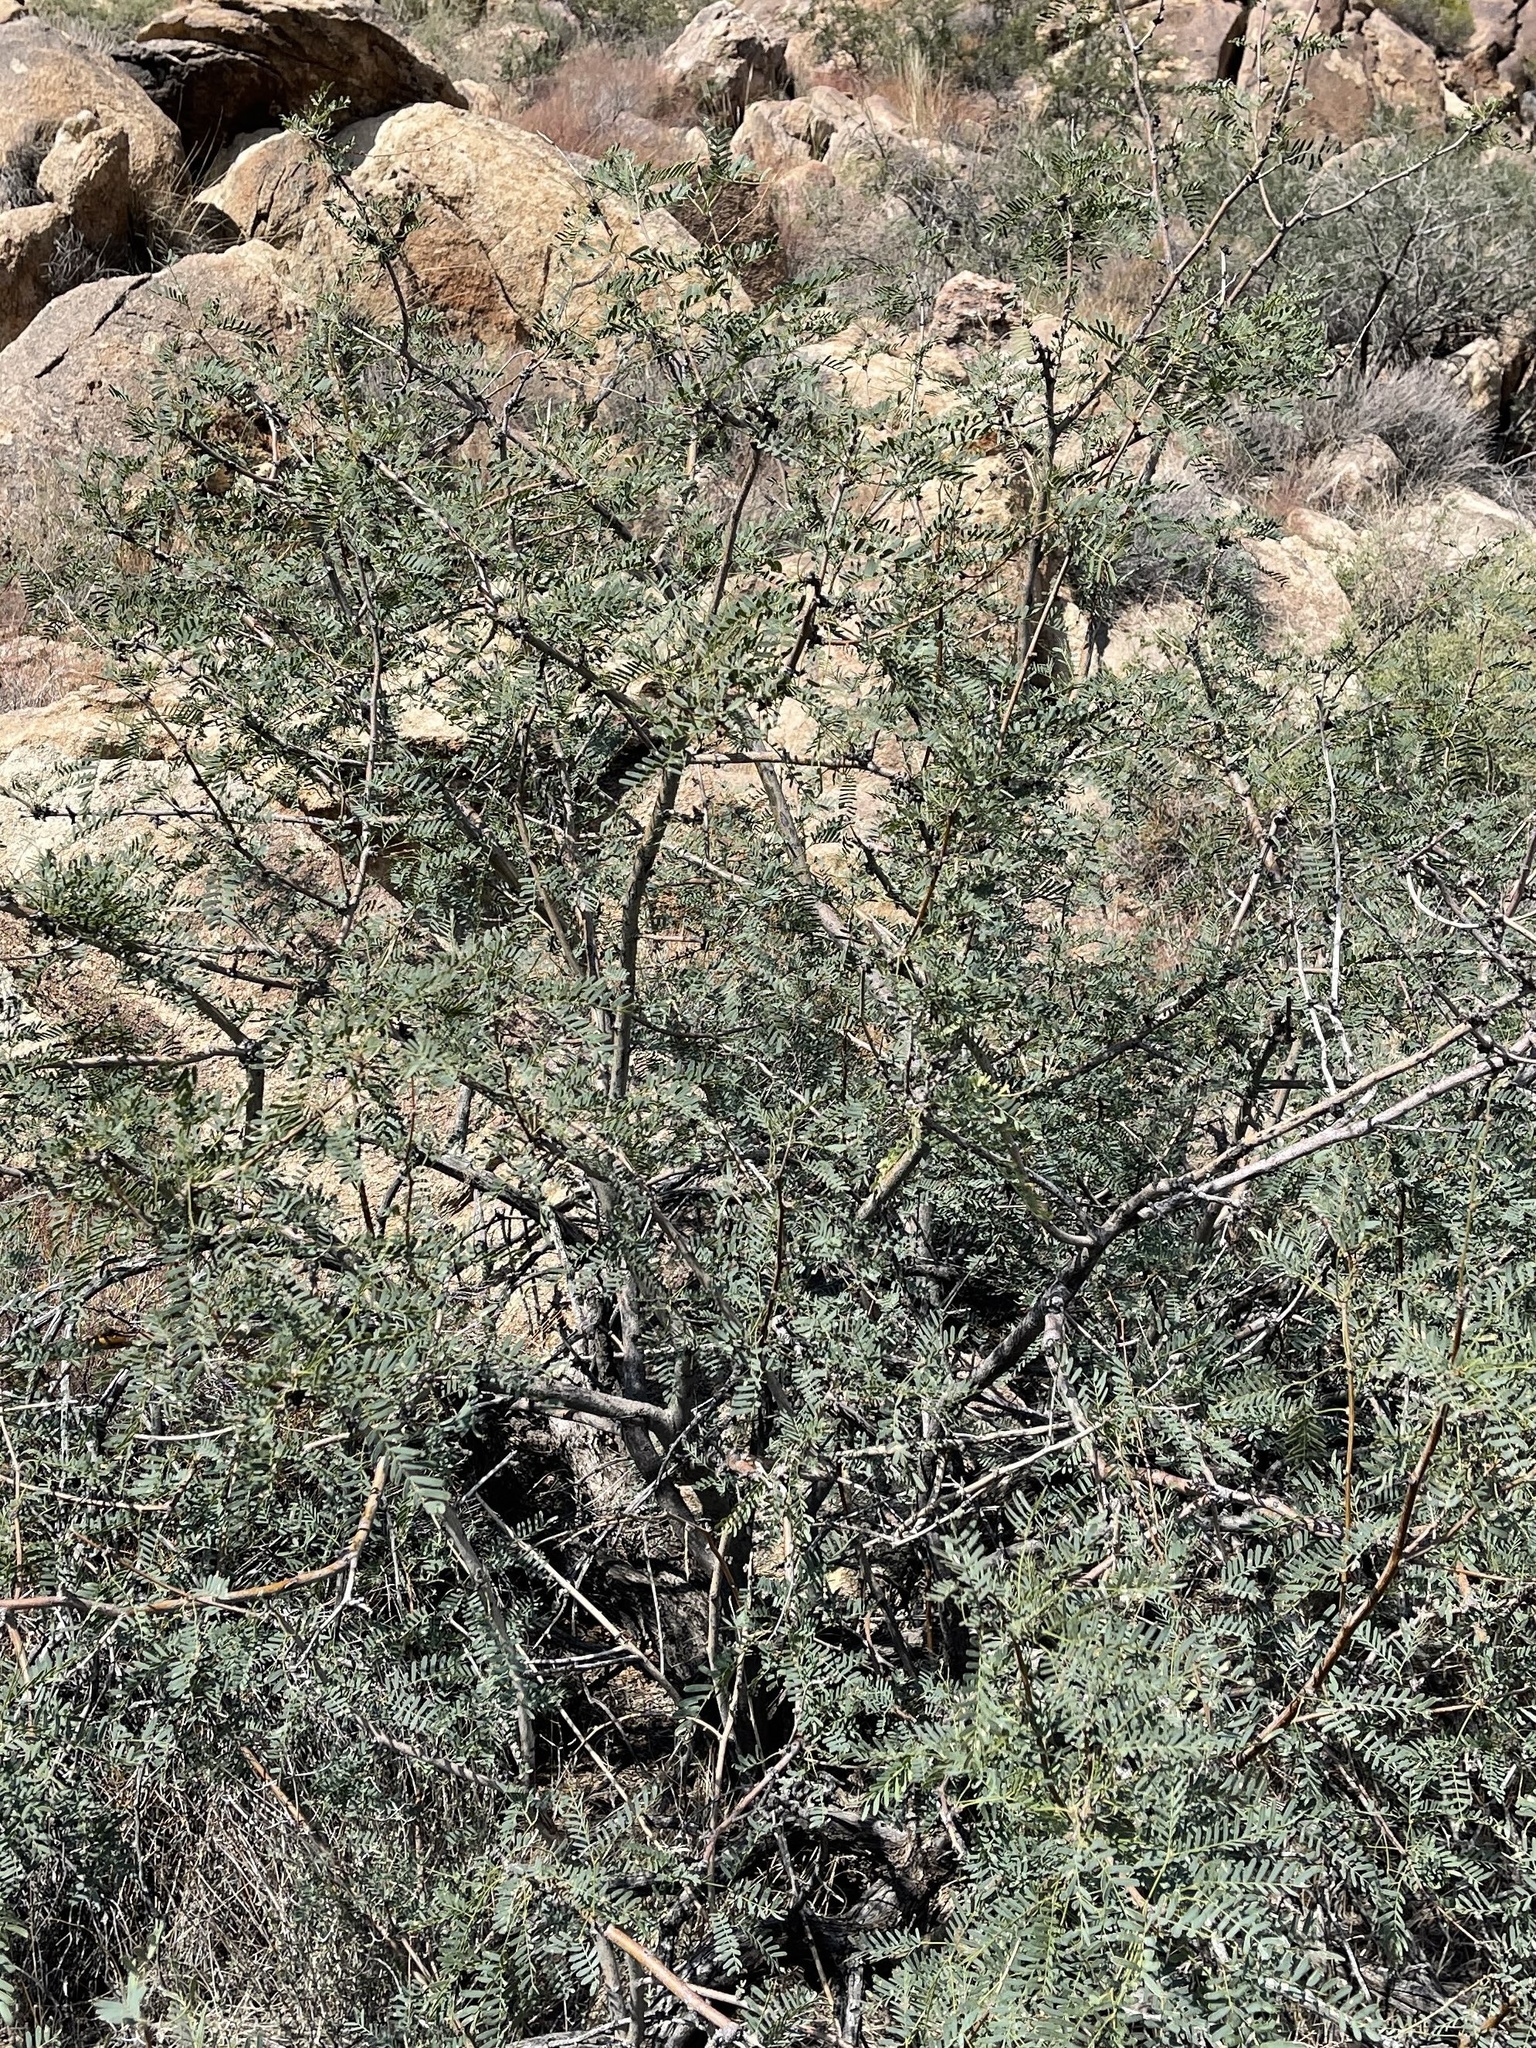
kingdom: Plantae
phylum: Tracheophyta
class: Magnoliopsida
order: Fabales
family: Fabaceae
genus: Prosopis
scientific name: Prosopis glandulosa
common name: Honey mesquite
